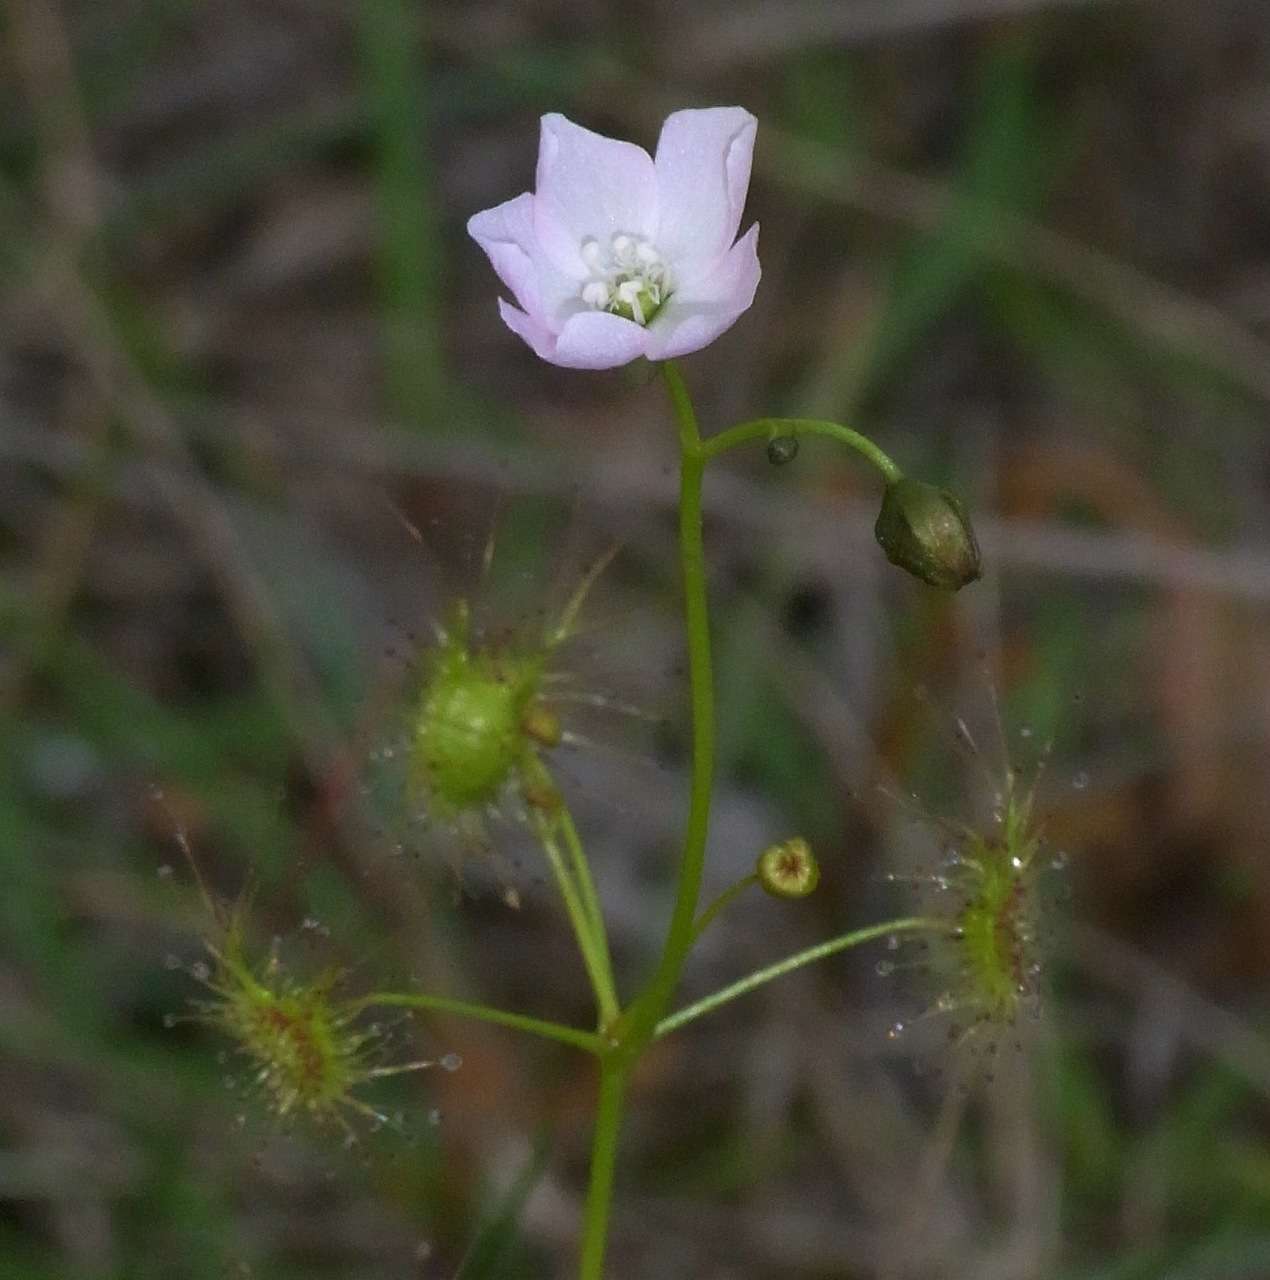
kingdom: Plantae
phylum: Tracheophyta
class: Magnoliopsida
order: Caryophyllales
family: Droseraceae
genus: Drosera
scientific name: Drosera peltata
